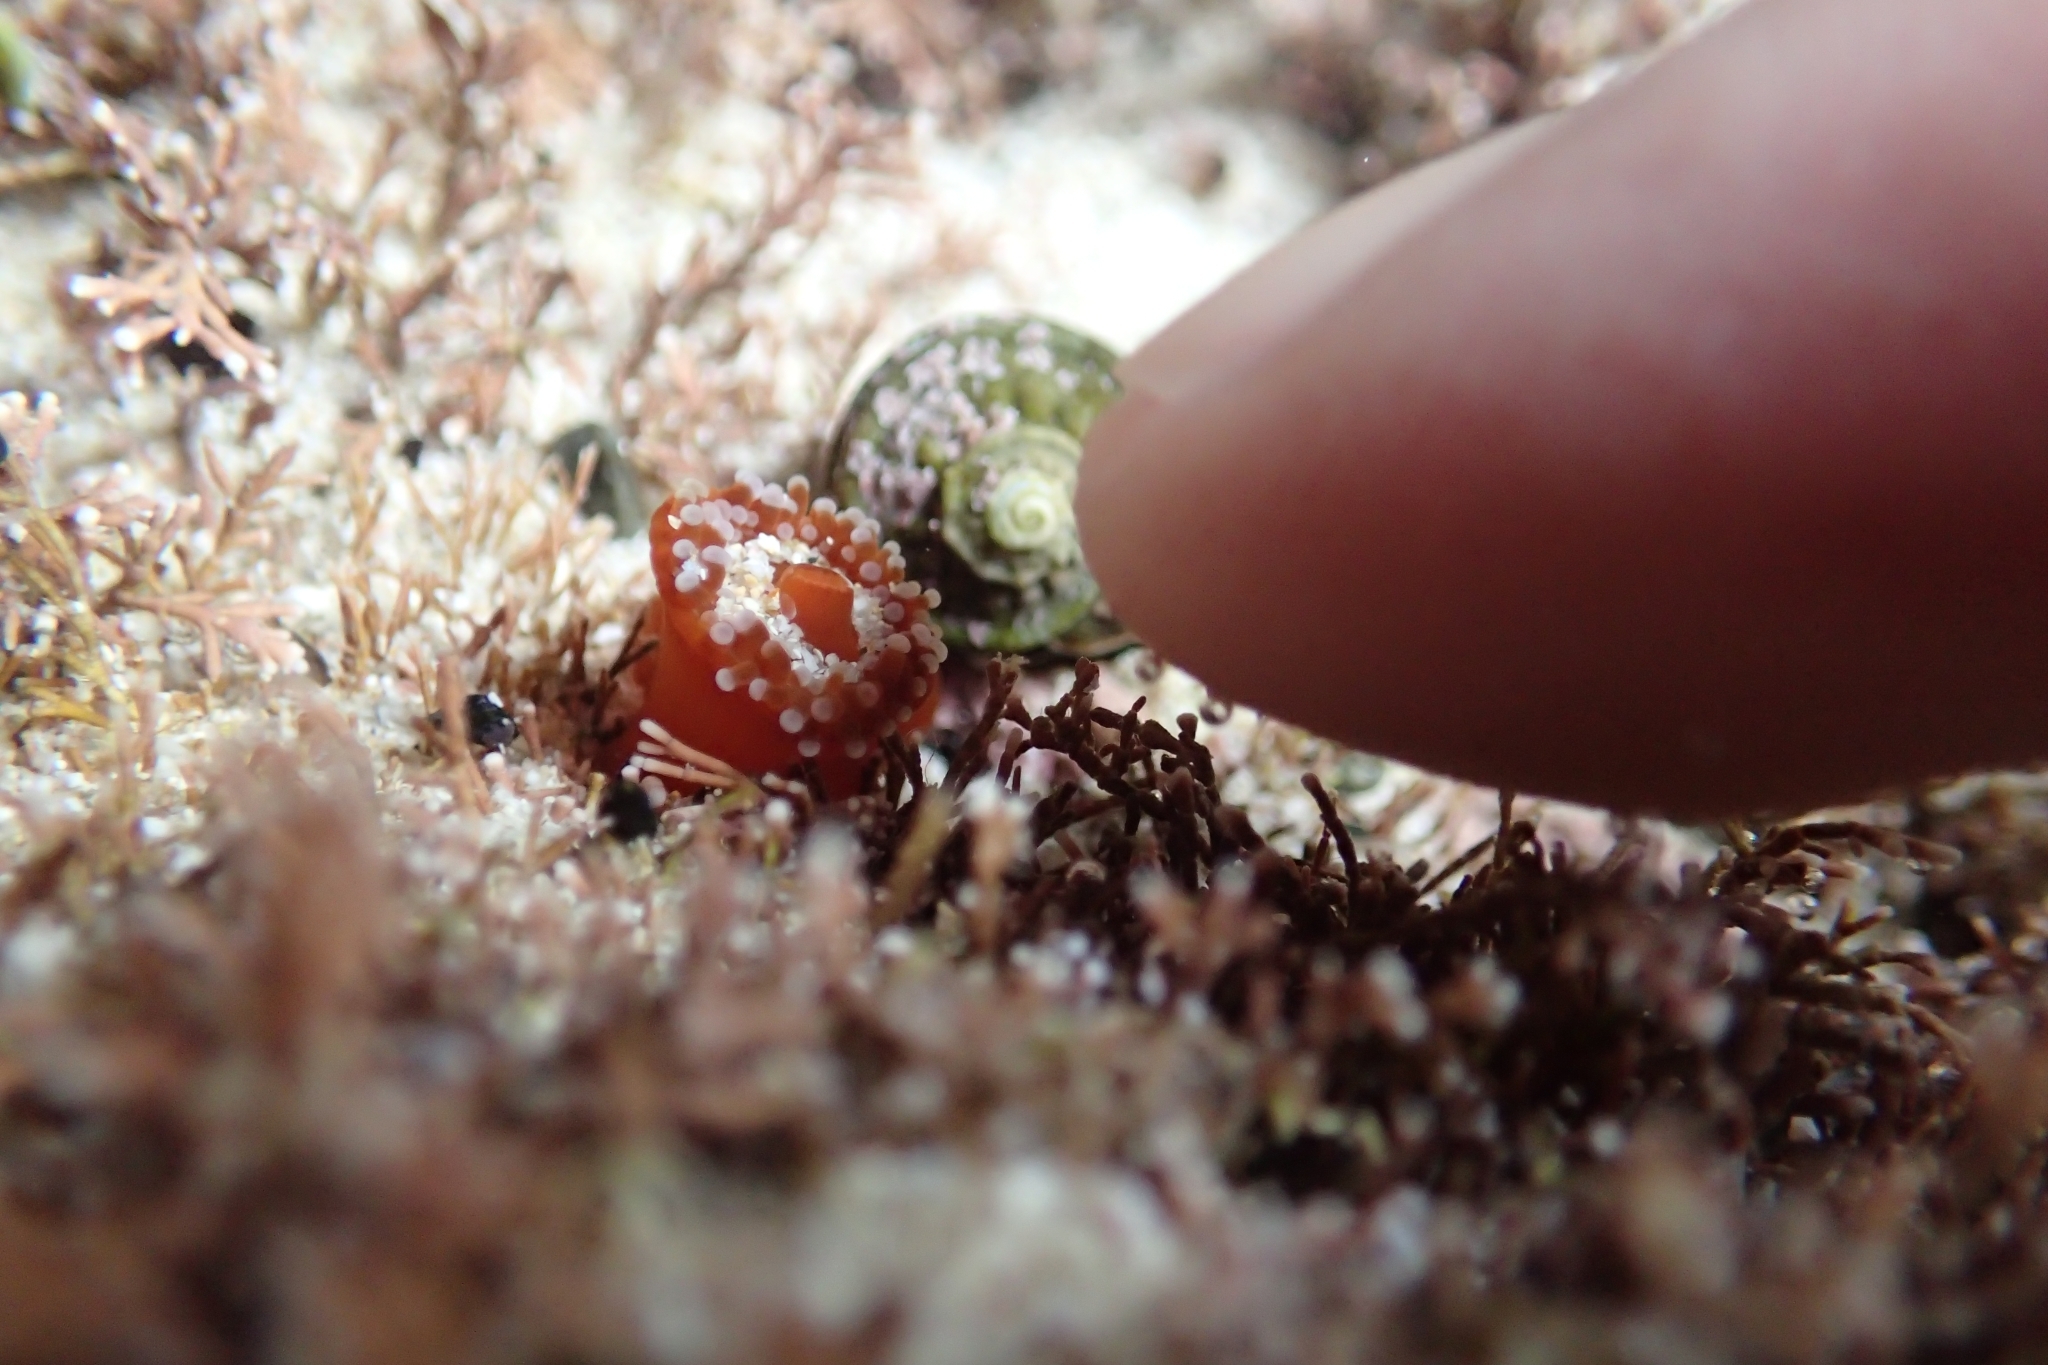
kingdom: Animalia
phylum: Cnidaria
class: Anthozoa
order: Corallimorpharia
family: Corallimorphidae
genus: Corynactis
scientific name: Corynactis australis
